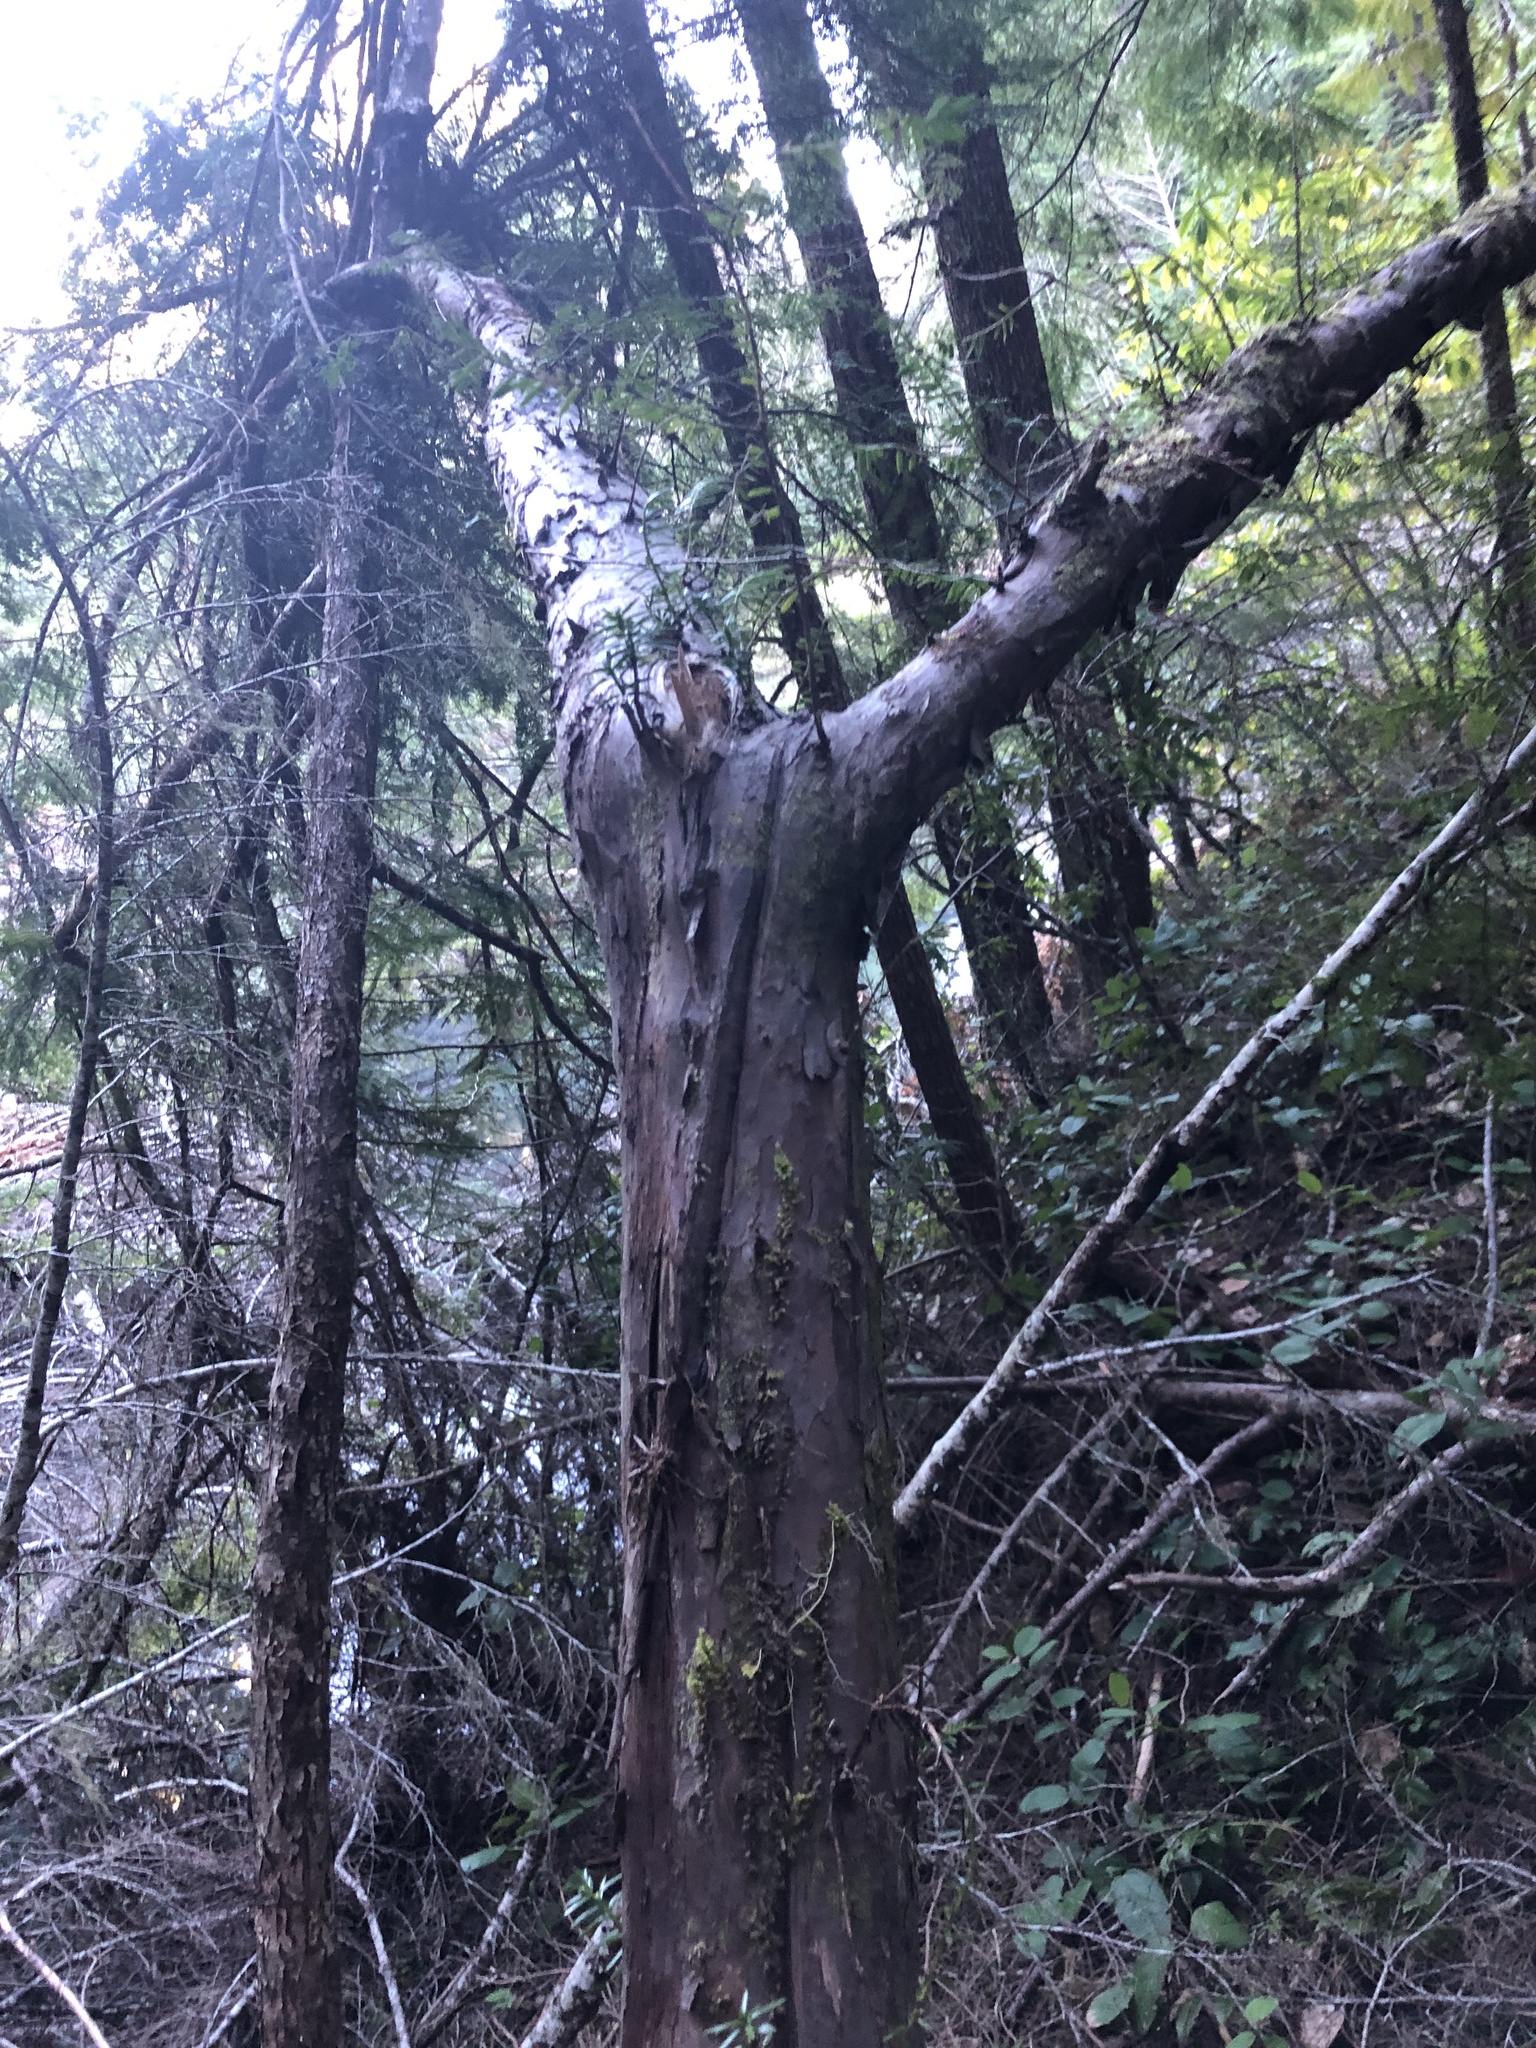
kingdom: Plantae
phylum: Tracheophyta
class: Pinopsida
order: Pinales
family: Taxaceae
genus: Taxus
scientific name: Taxus brevifolia
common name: Pacific yew
